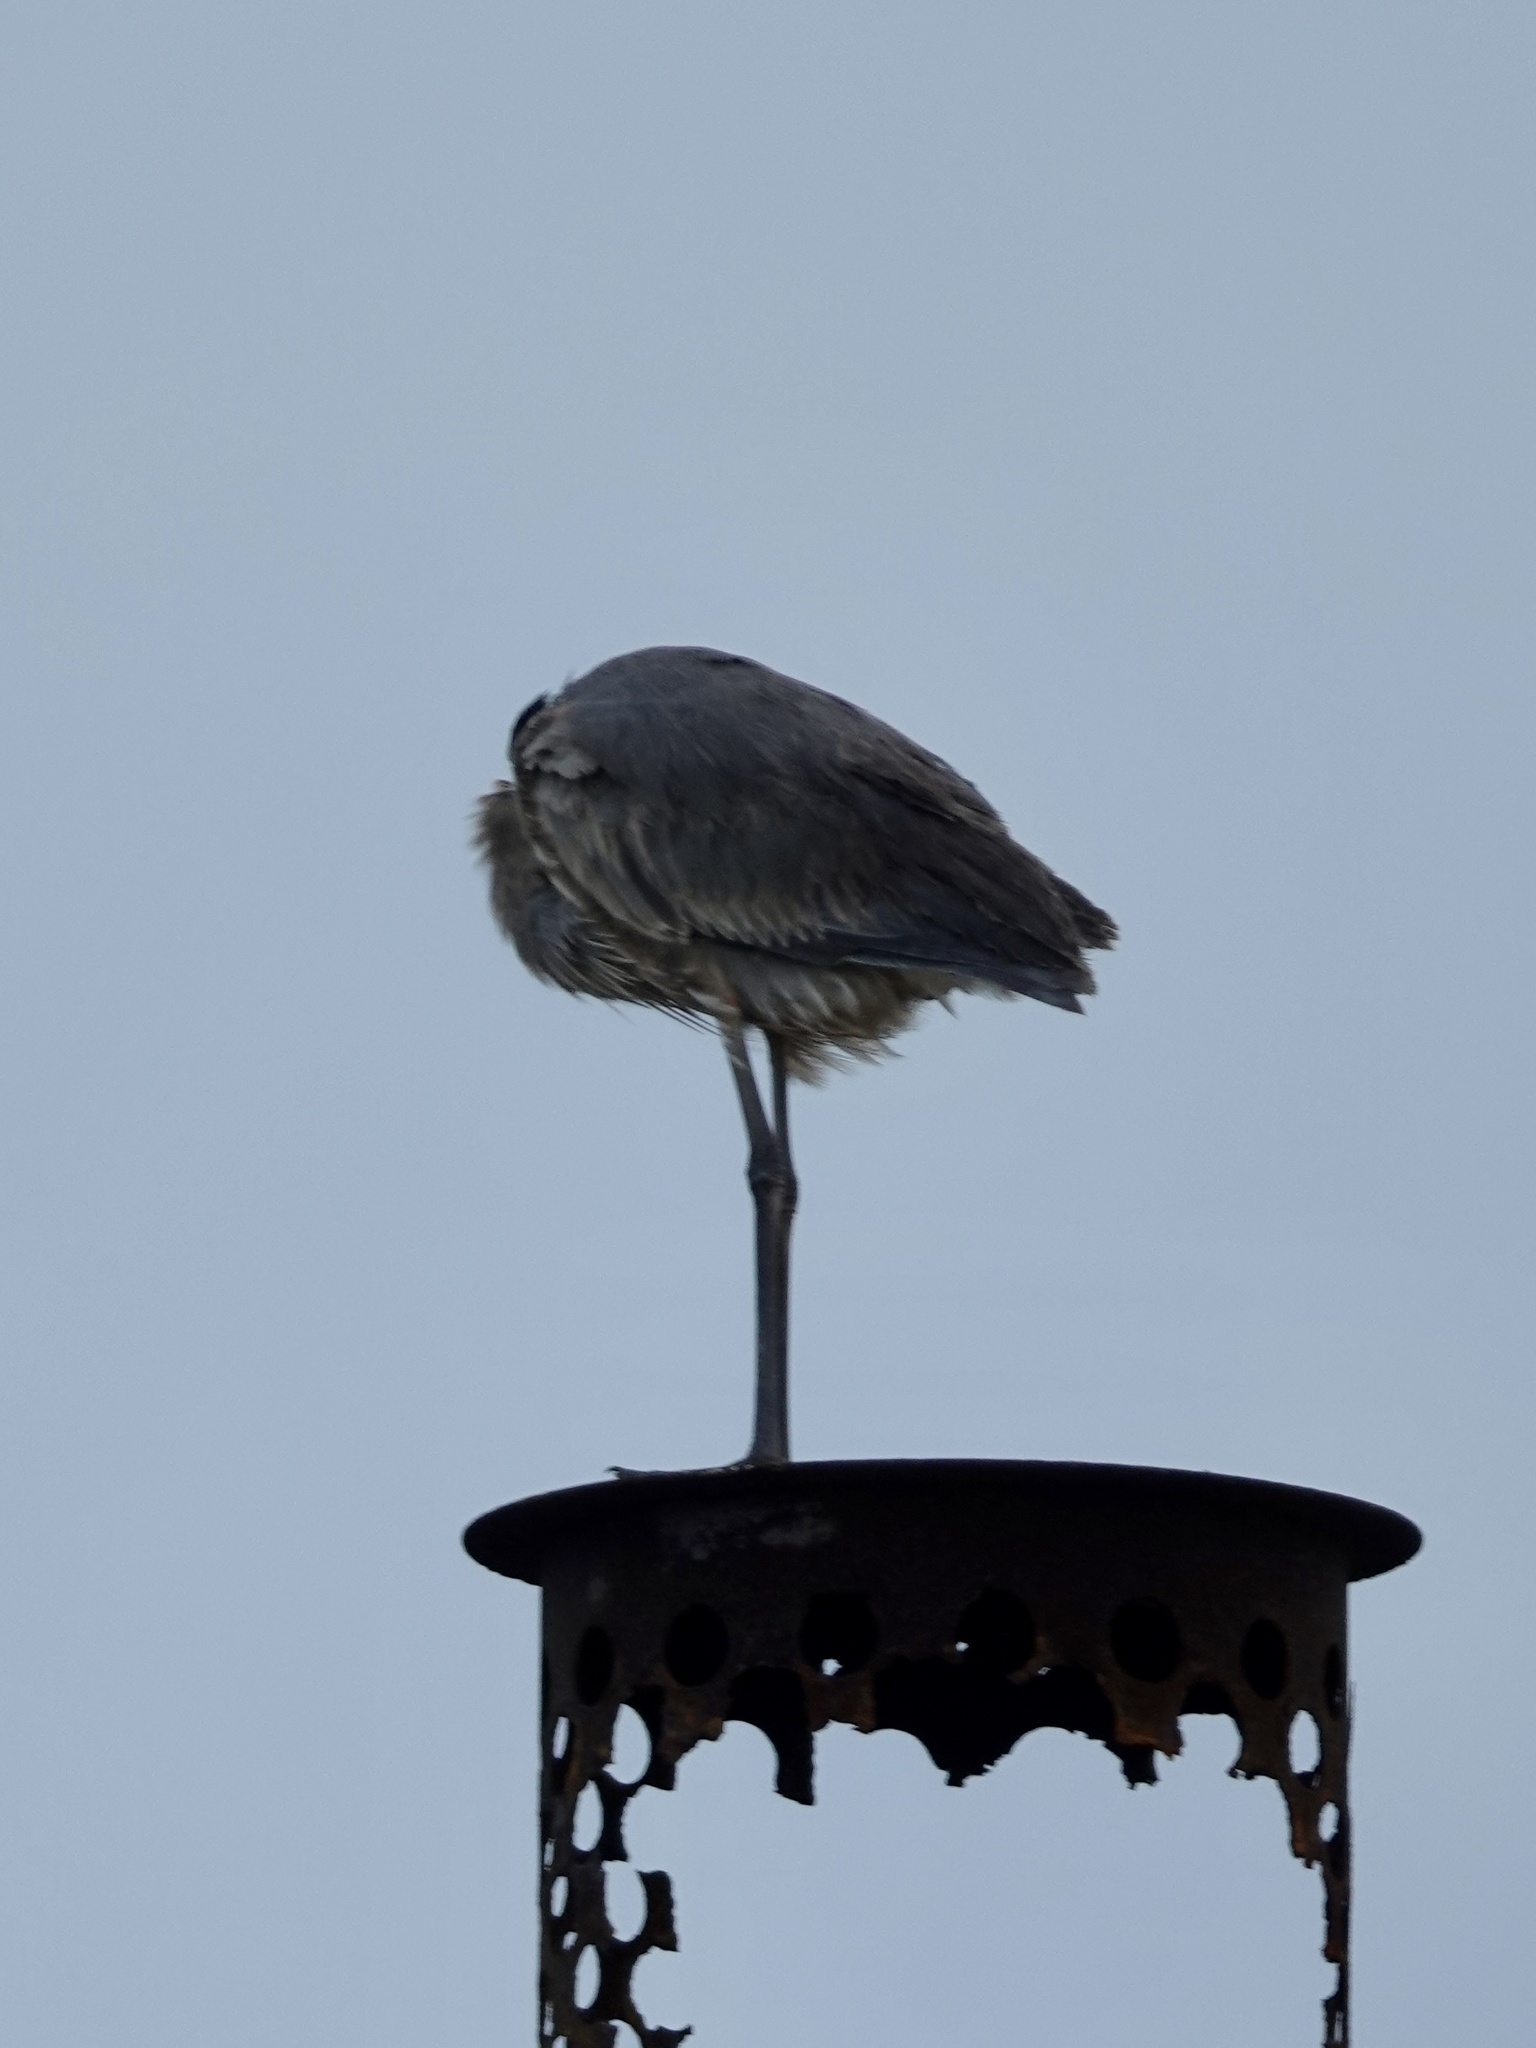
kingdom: Animalia
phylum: Chordata
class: Aves
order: Pelecaniformes
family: Ardeidae
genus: Ardea
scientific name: Ardea herodias
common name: Great blue heron
